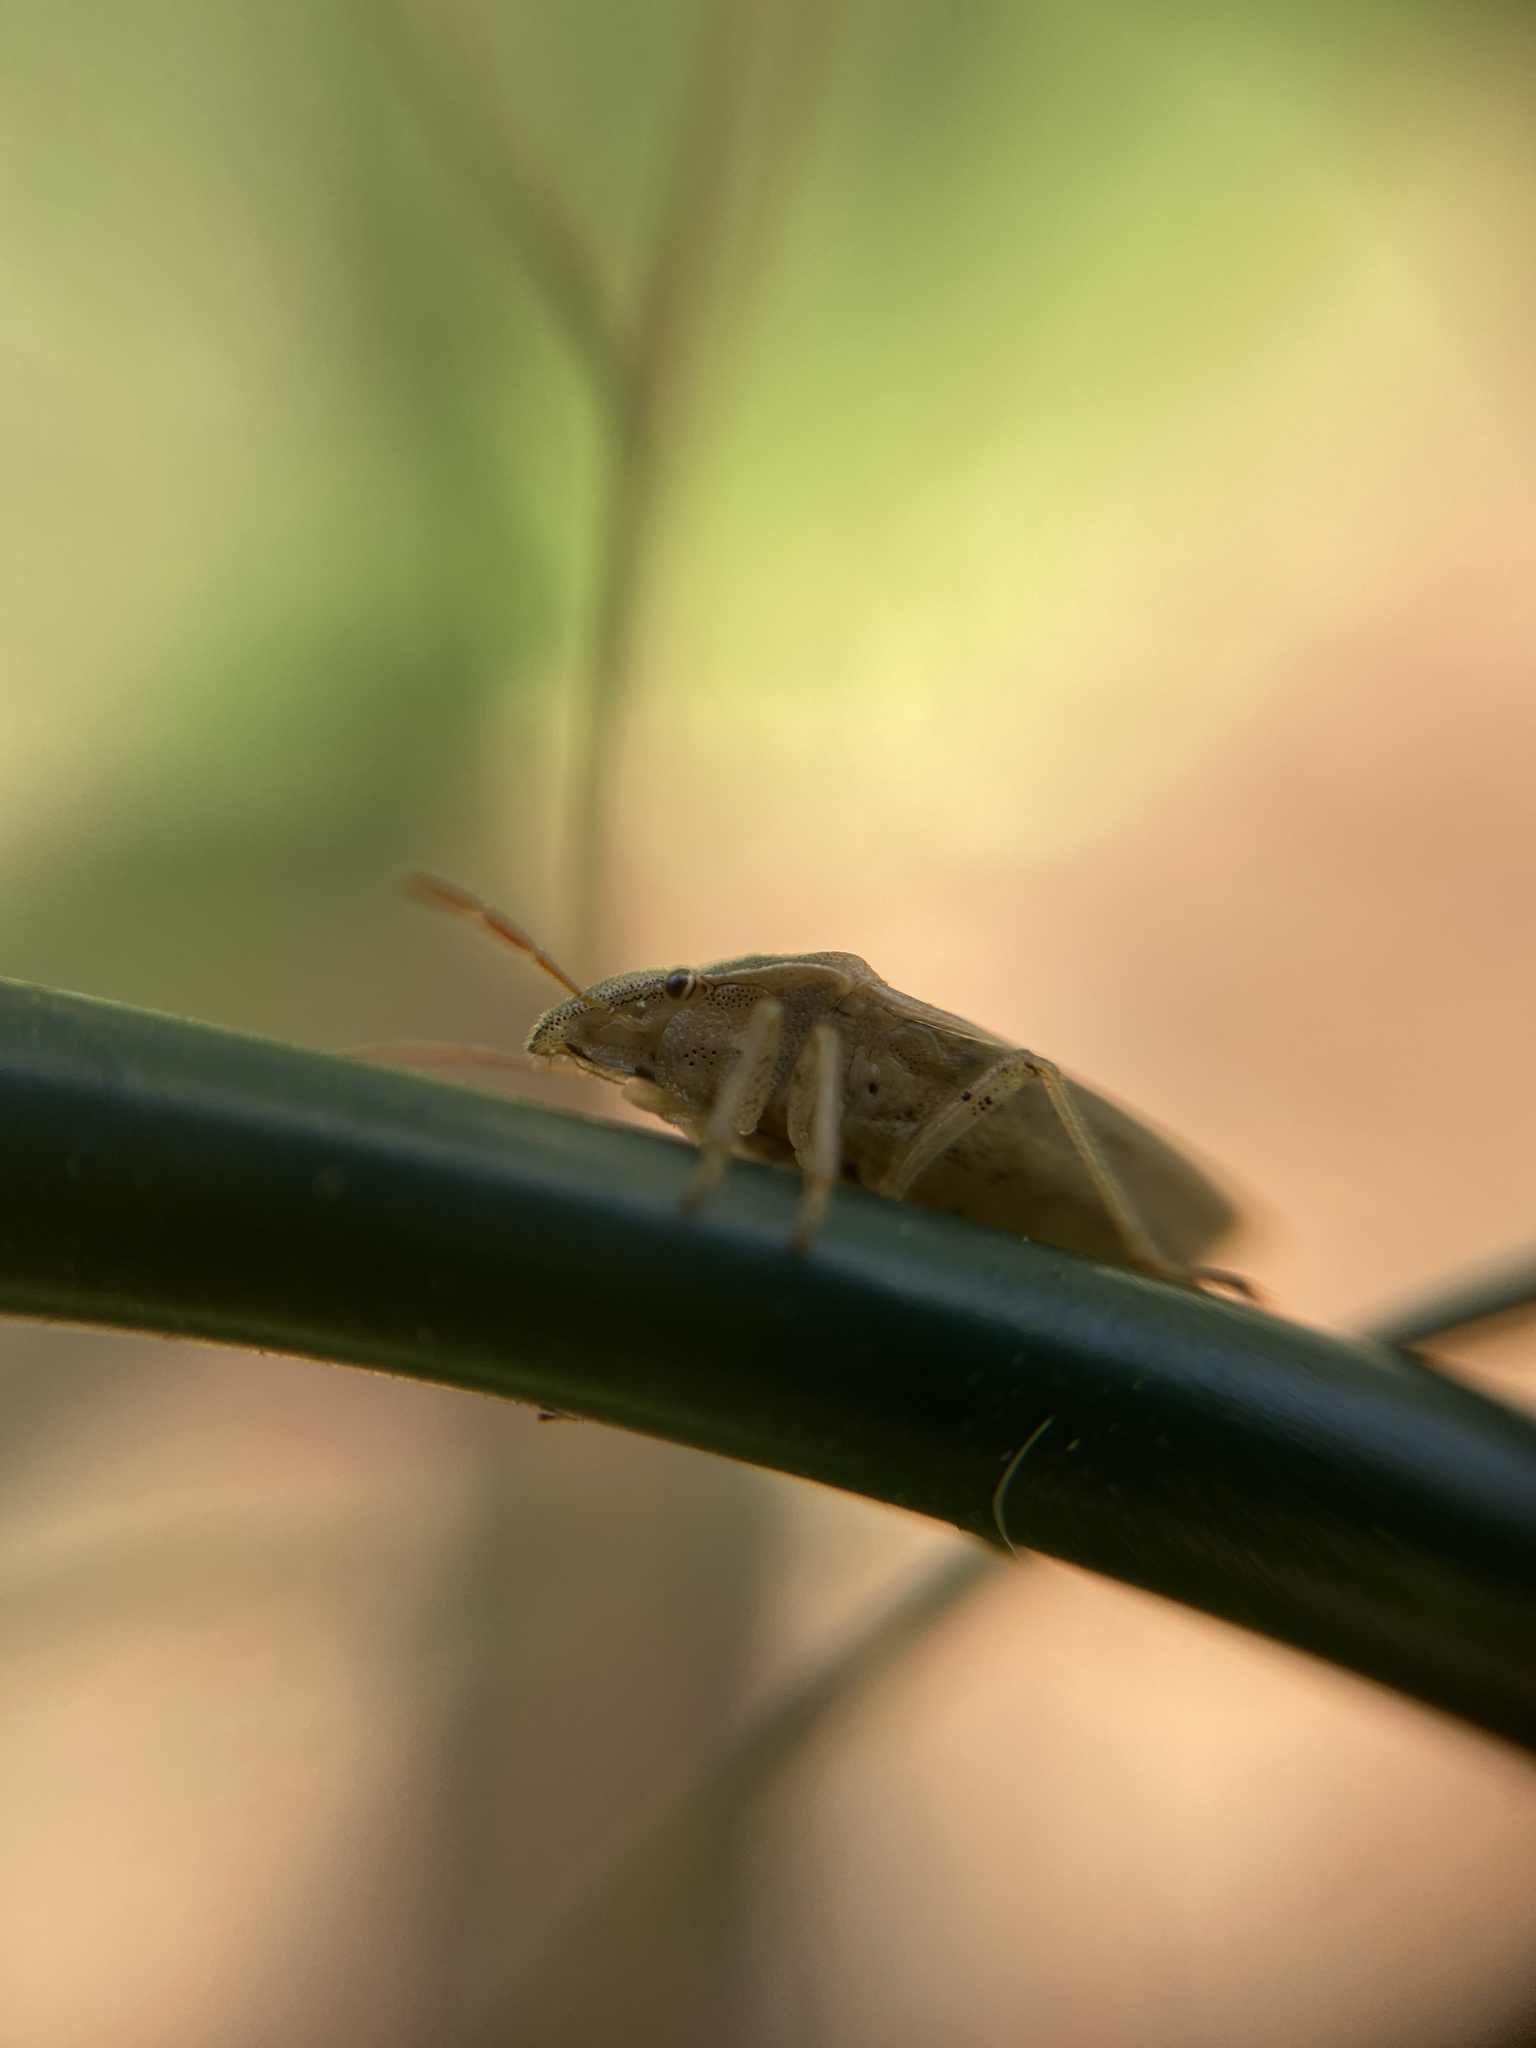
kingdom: Animalia
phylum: Arthropoda
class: Insecta
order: Hemiptera
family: Pentatomidae
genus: Aelia
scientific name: Aelia acuminata
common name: Bishop's mitre
